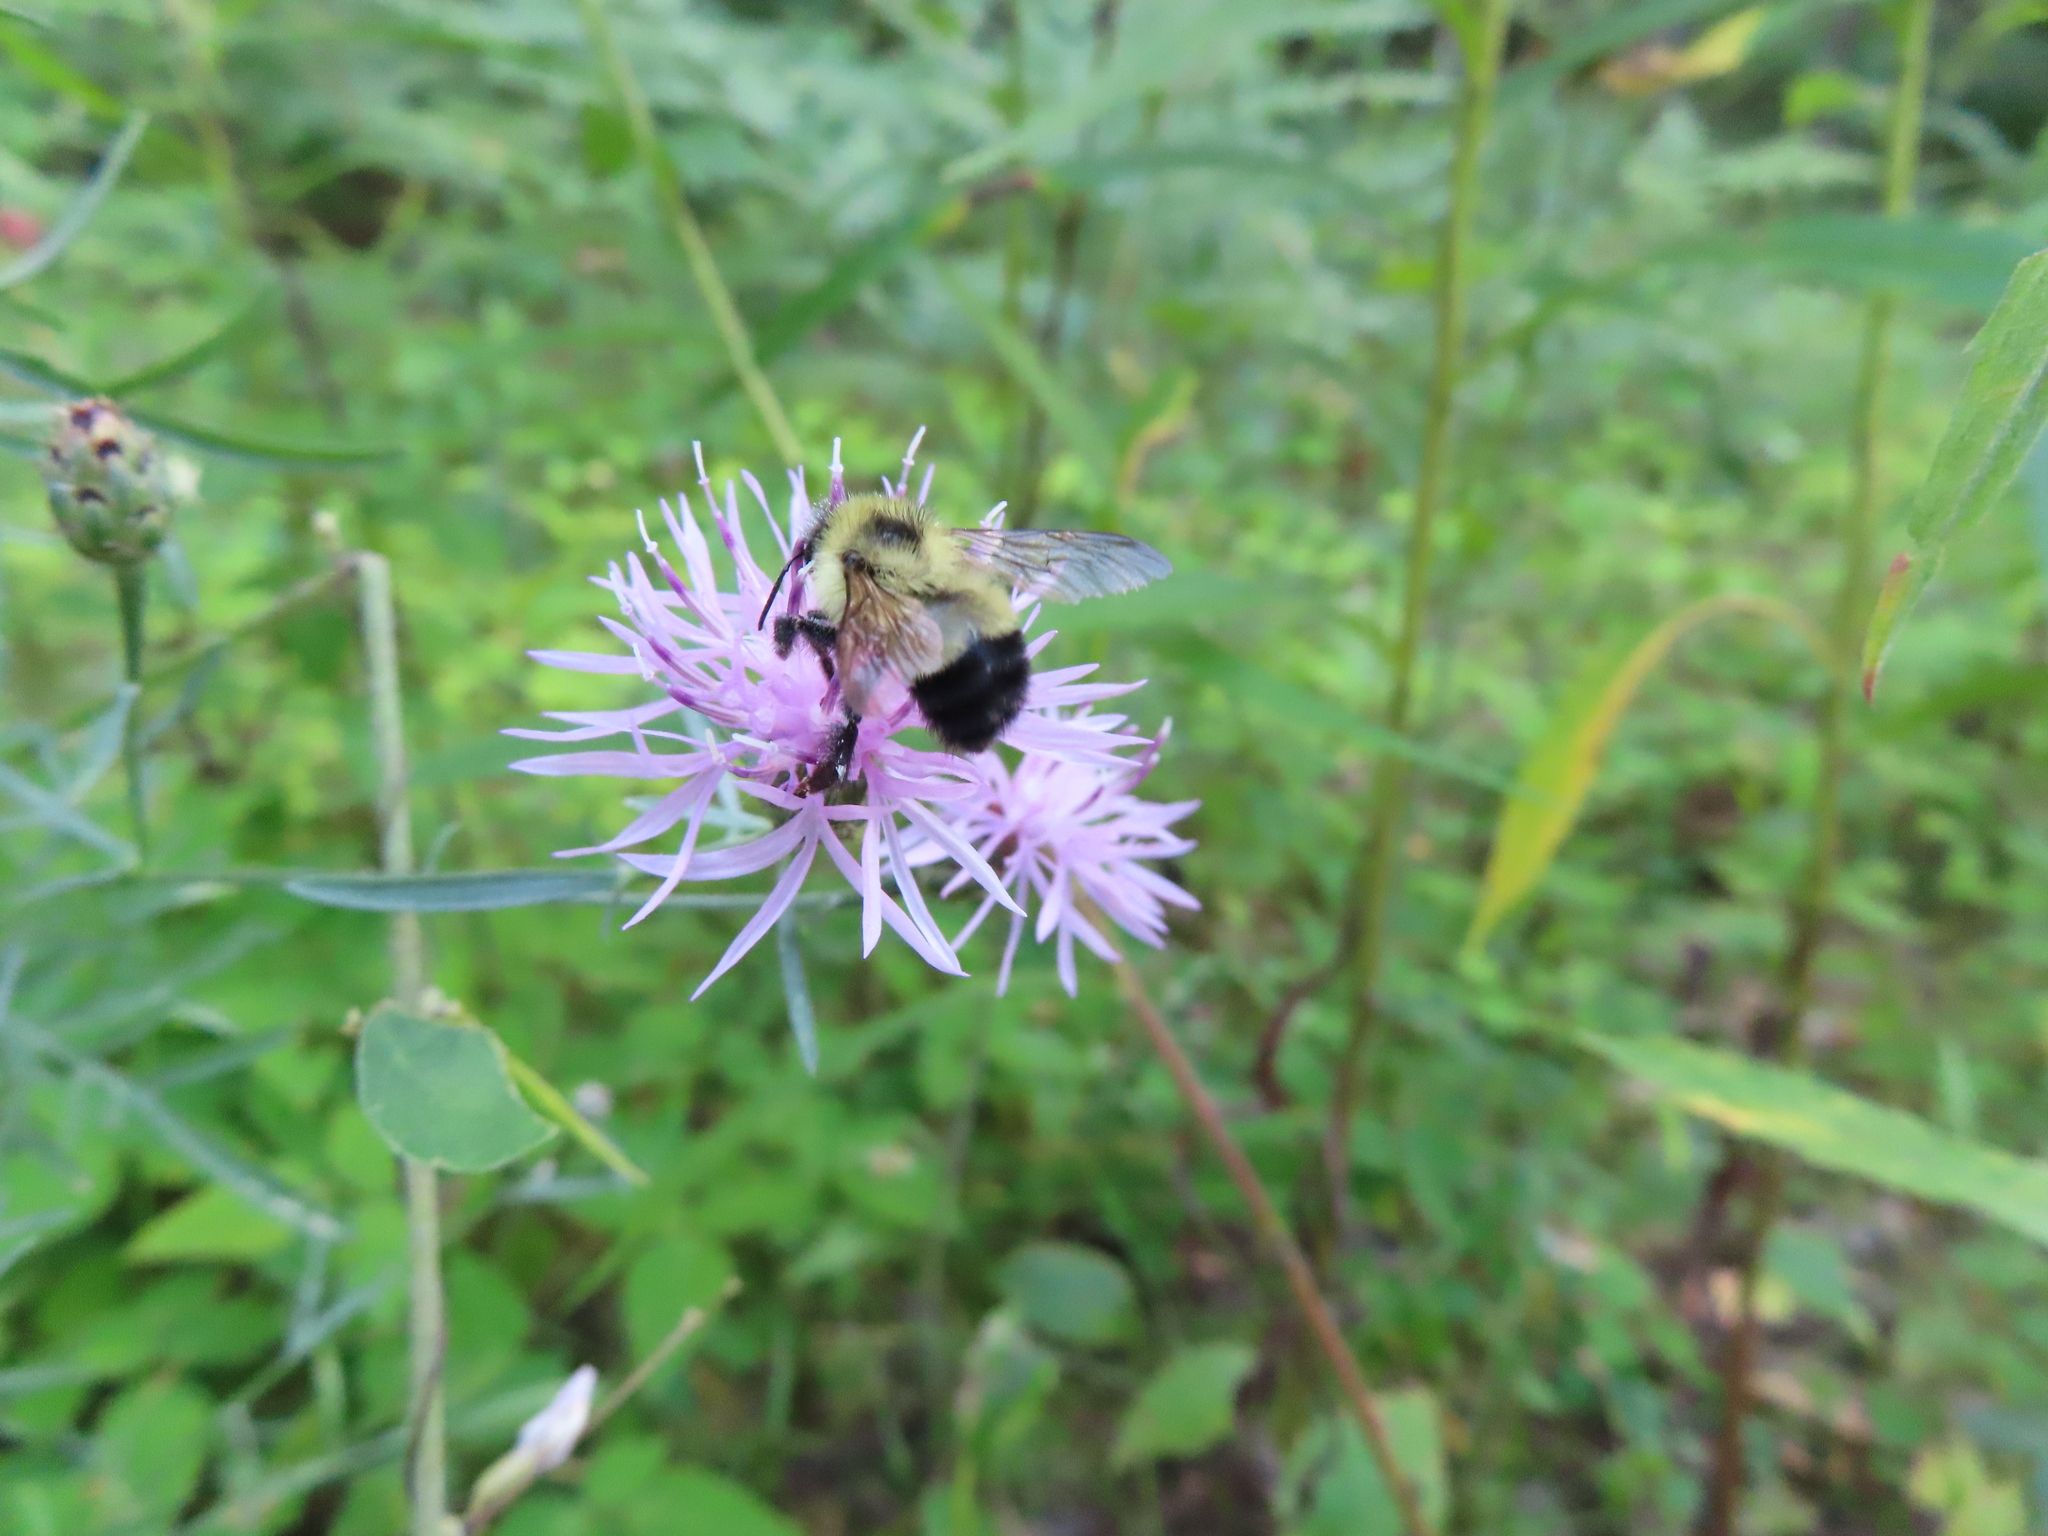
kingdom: Animalia
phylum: Arthropoda
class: Insecta
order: Hymenoptera
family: Apidae
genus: Bombus
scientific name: Bombus vagans
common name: Half-black bumble bee
